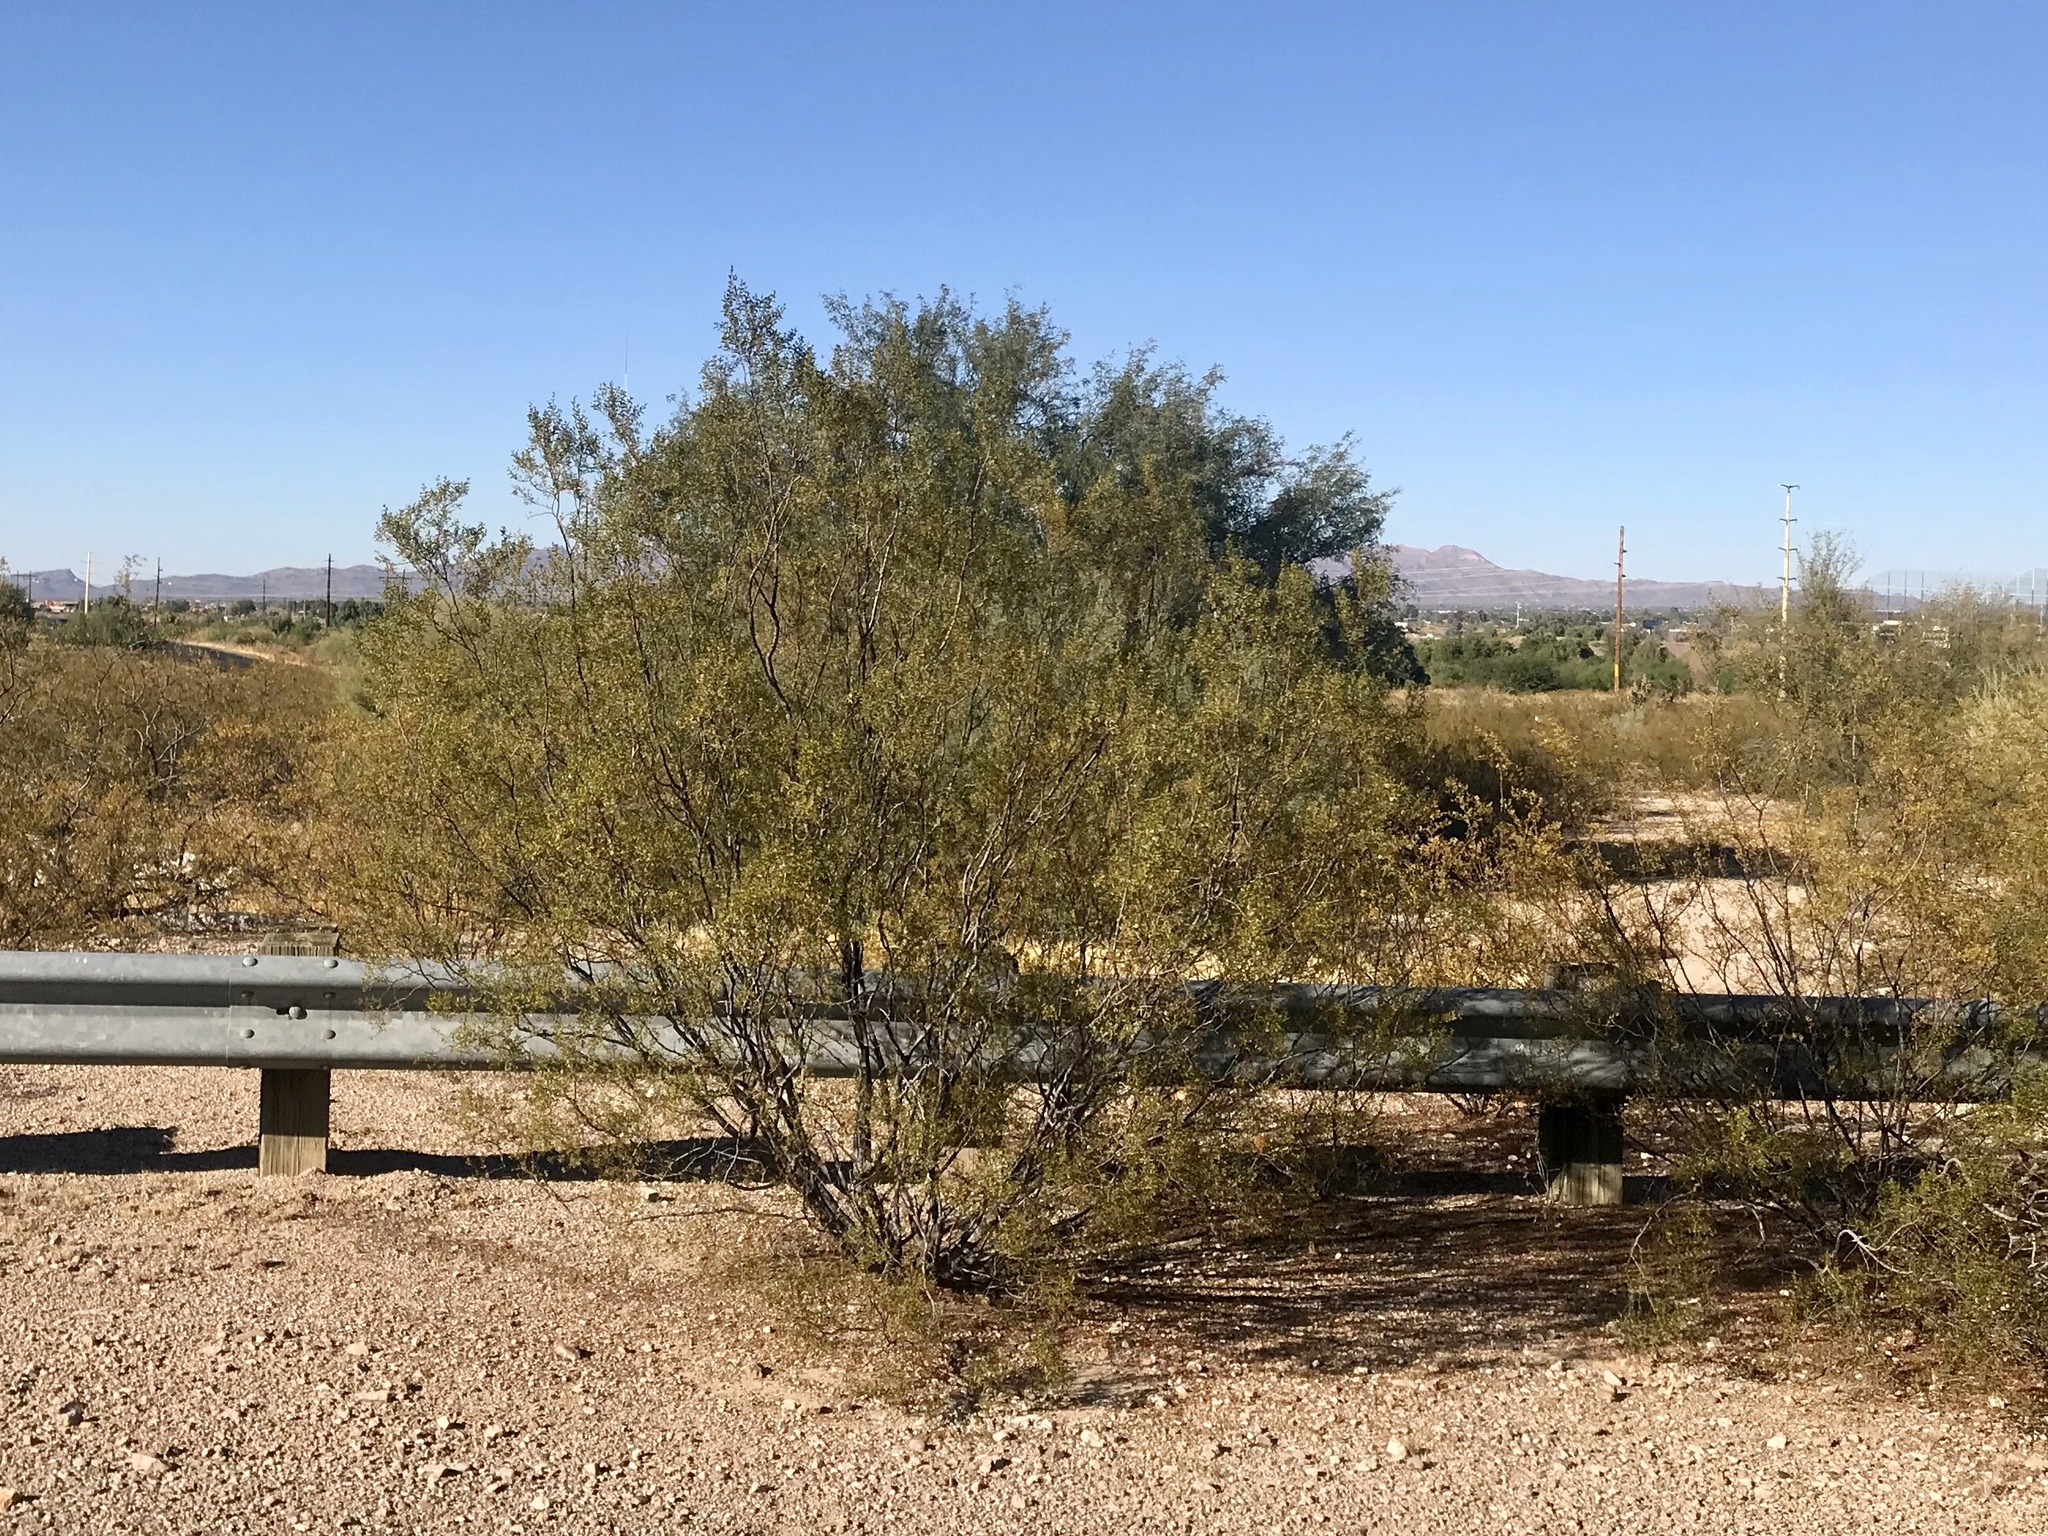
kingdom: Plantae
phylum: Tracheophyta
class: Magnoliopsida
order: Zygophyllales
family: Zygophyllaceae
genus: Larrea
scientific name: Larrea tridentata
